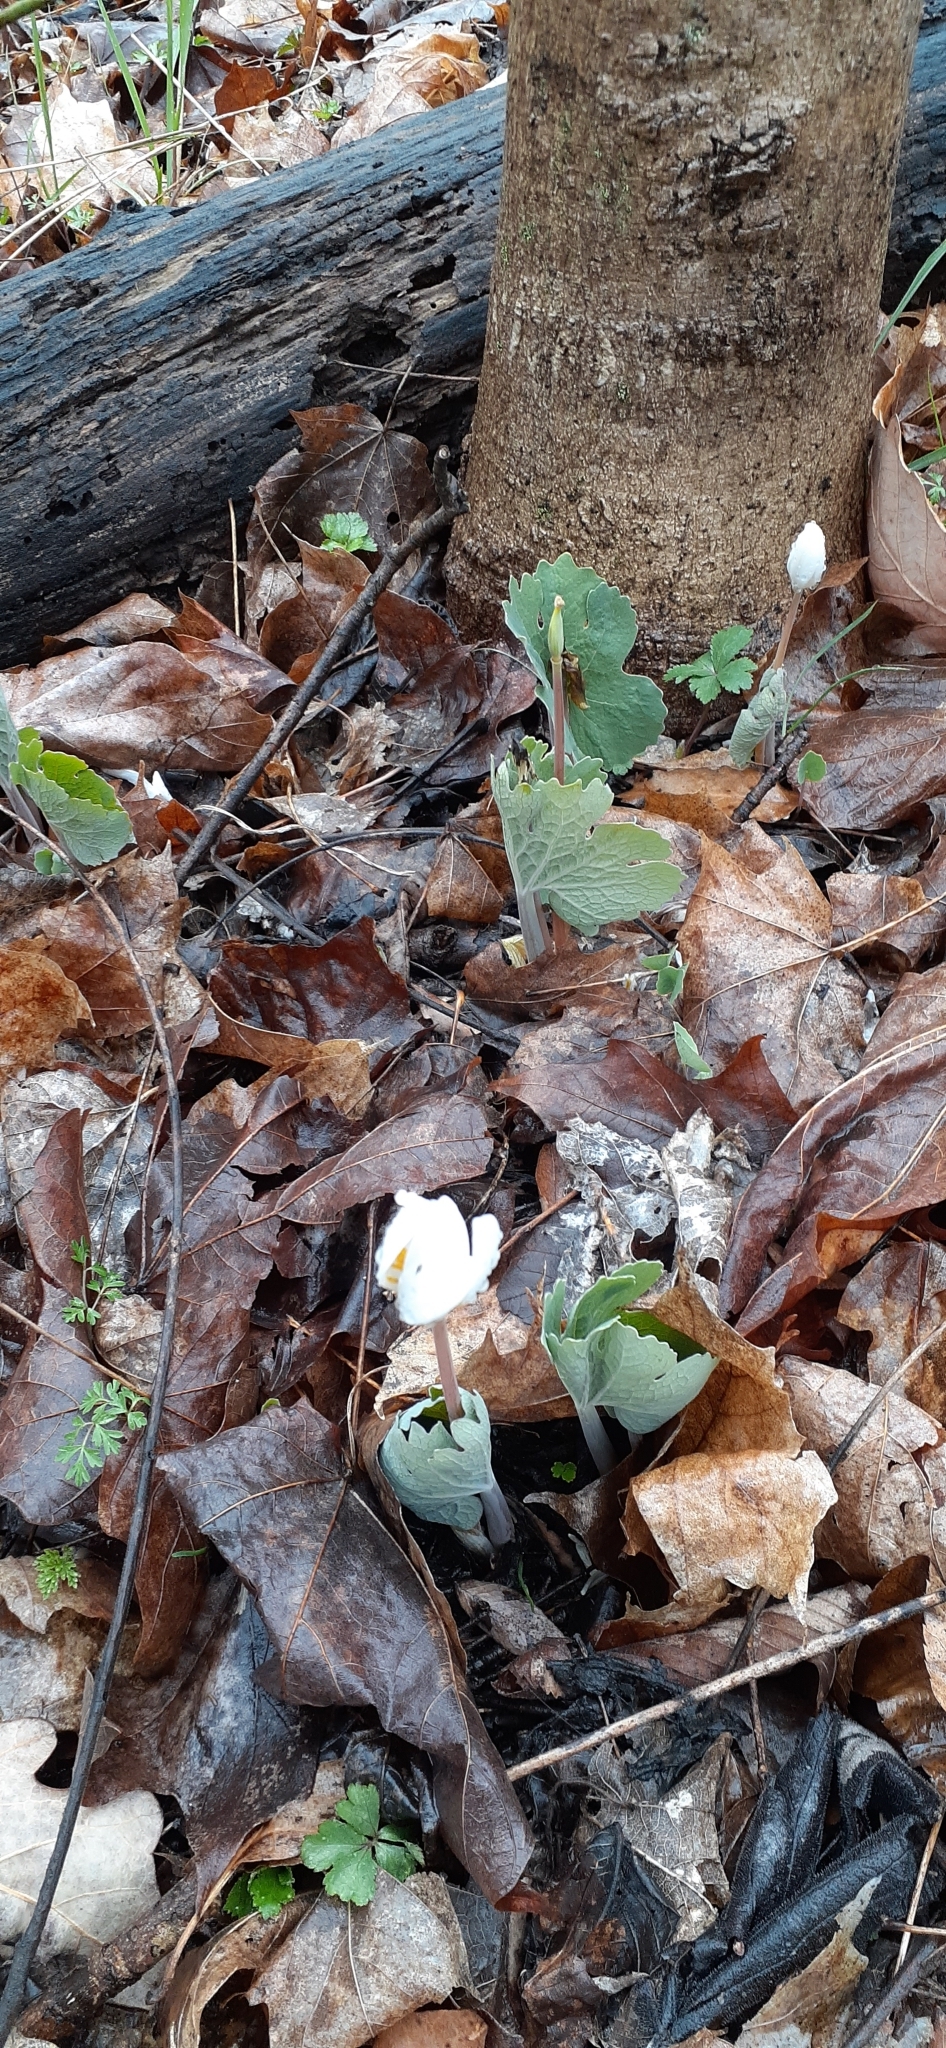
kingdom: Plantae
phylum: Tracheophyta
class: Magnoliopsida
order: Ranunculales
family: Papaveraceae
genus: Sanguinaria
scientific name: Sanguinaria canadensis
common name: Bloodroot
